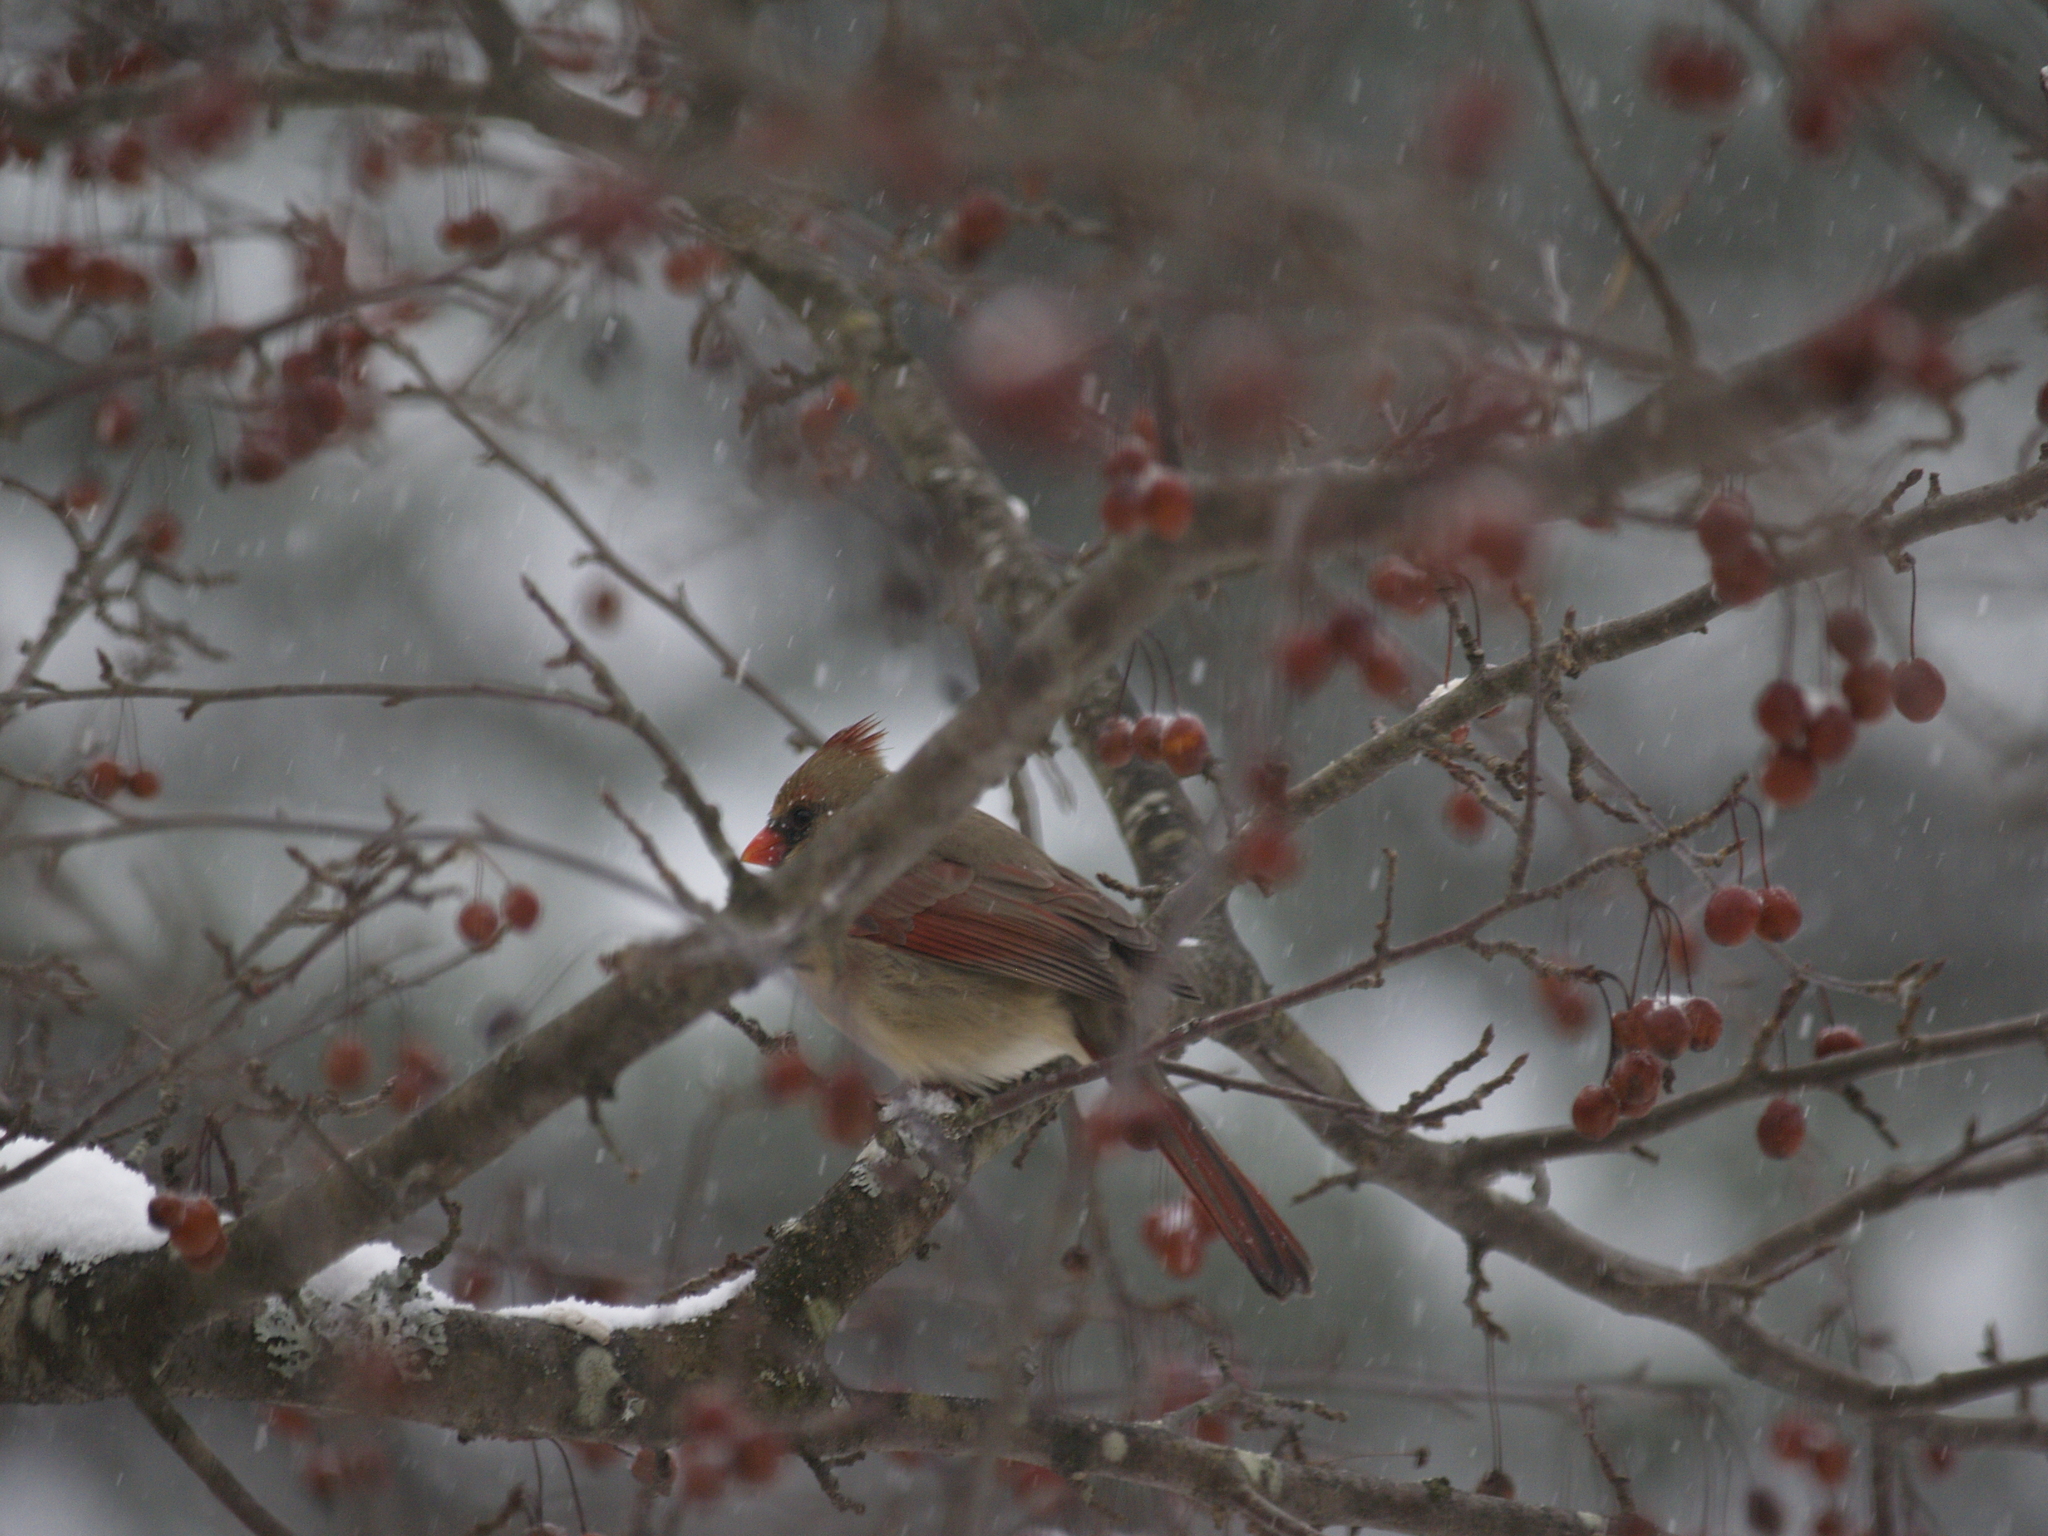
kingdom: Animalia
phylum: Chordata
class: Aves
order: Passeriformes
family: Cardinalidae
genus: Cardinalis
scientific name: Cardinalis cardinalis
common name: Northern cardinal
